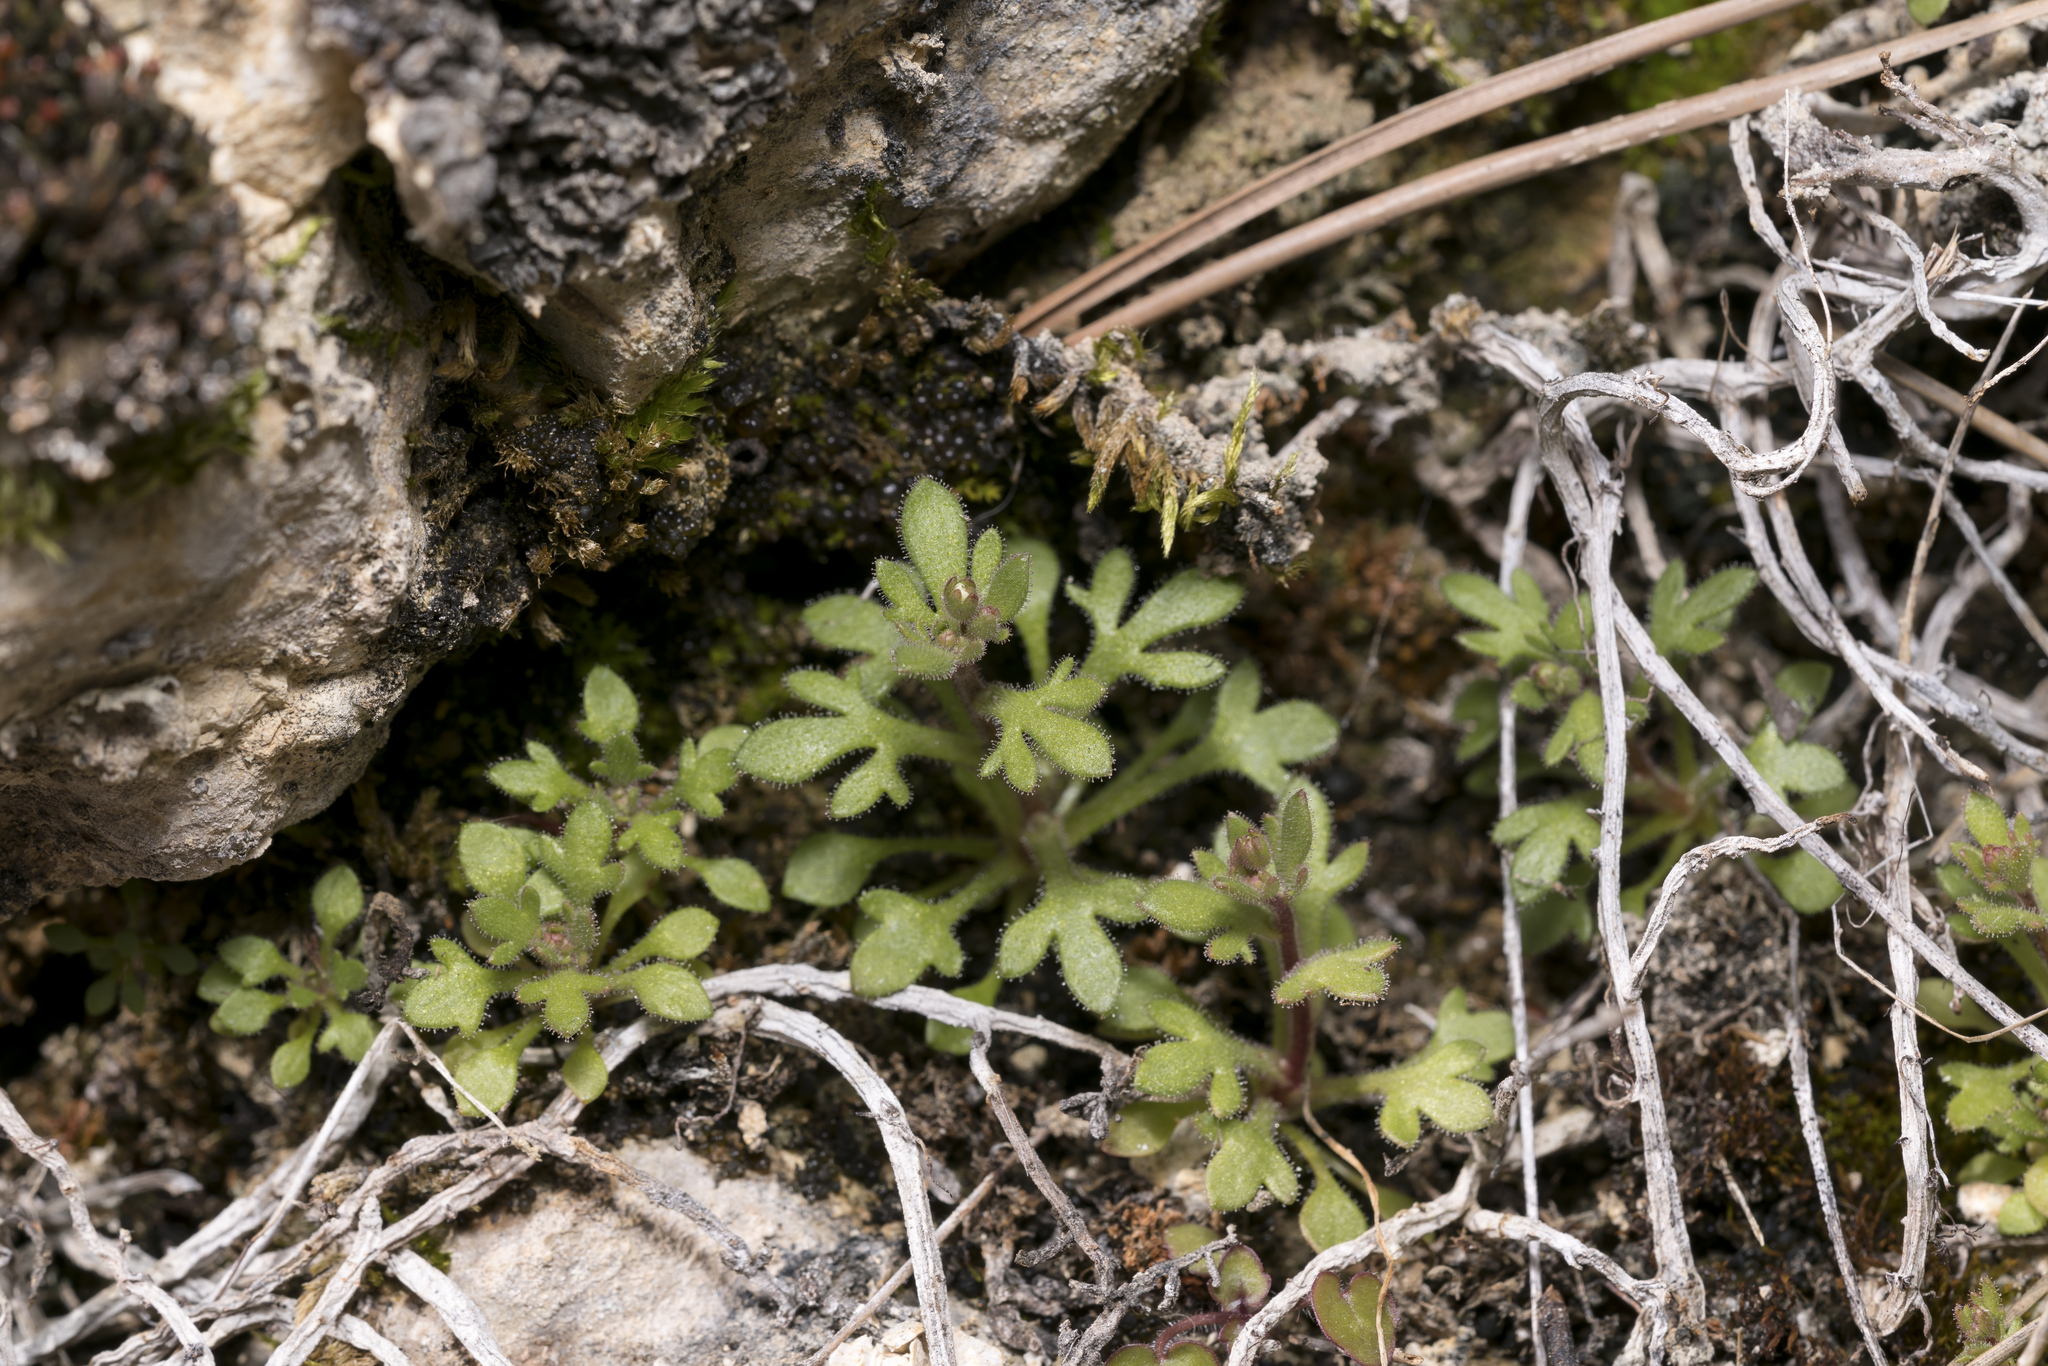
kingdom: Plantae
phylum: Tracheophyta
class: Magnoliopsida
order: Saxifragales
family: Saxifragaceae
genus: Saxifraga
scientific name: Saxifraga tridactylites
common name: Rue-leaved saxifrage
